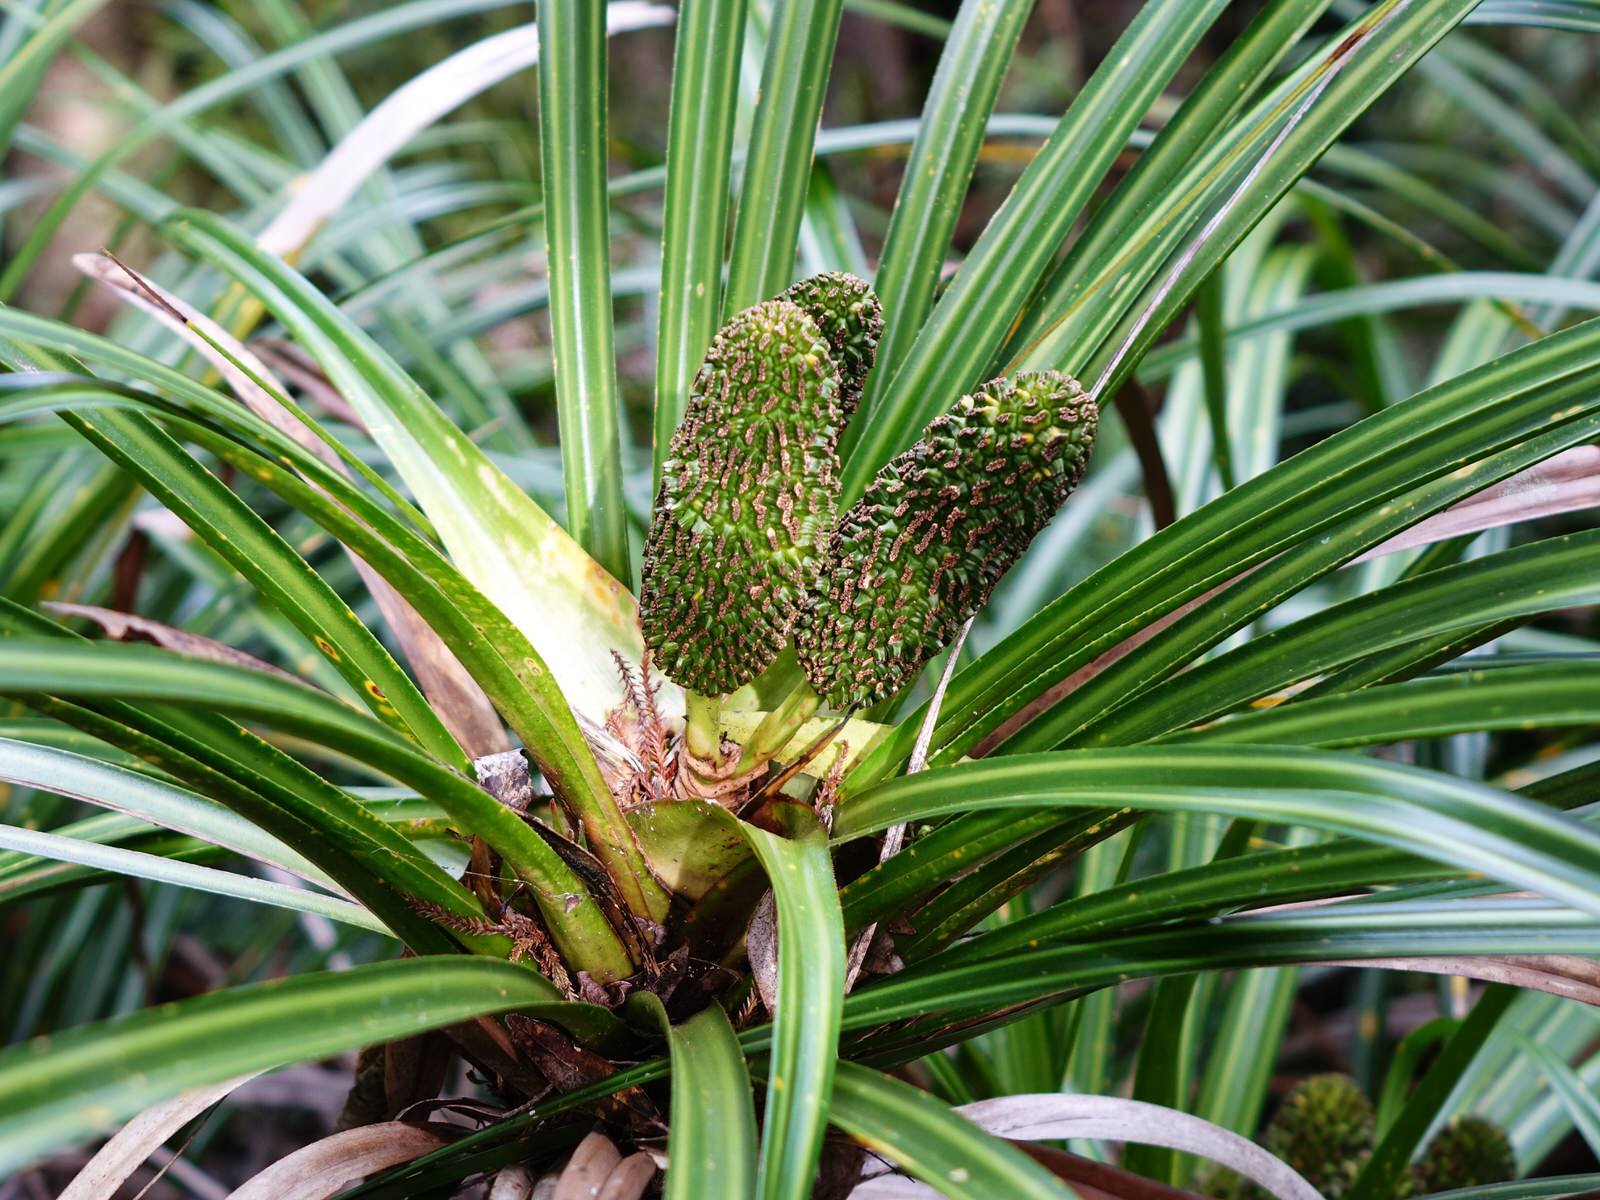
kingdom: Plantae
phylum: Tracheophyta
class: Liliopsida
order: Pandanales
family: Pandanaceae
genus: Freycinetia
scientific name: Freycinetia banksii
